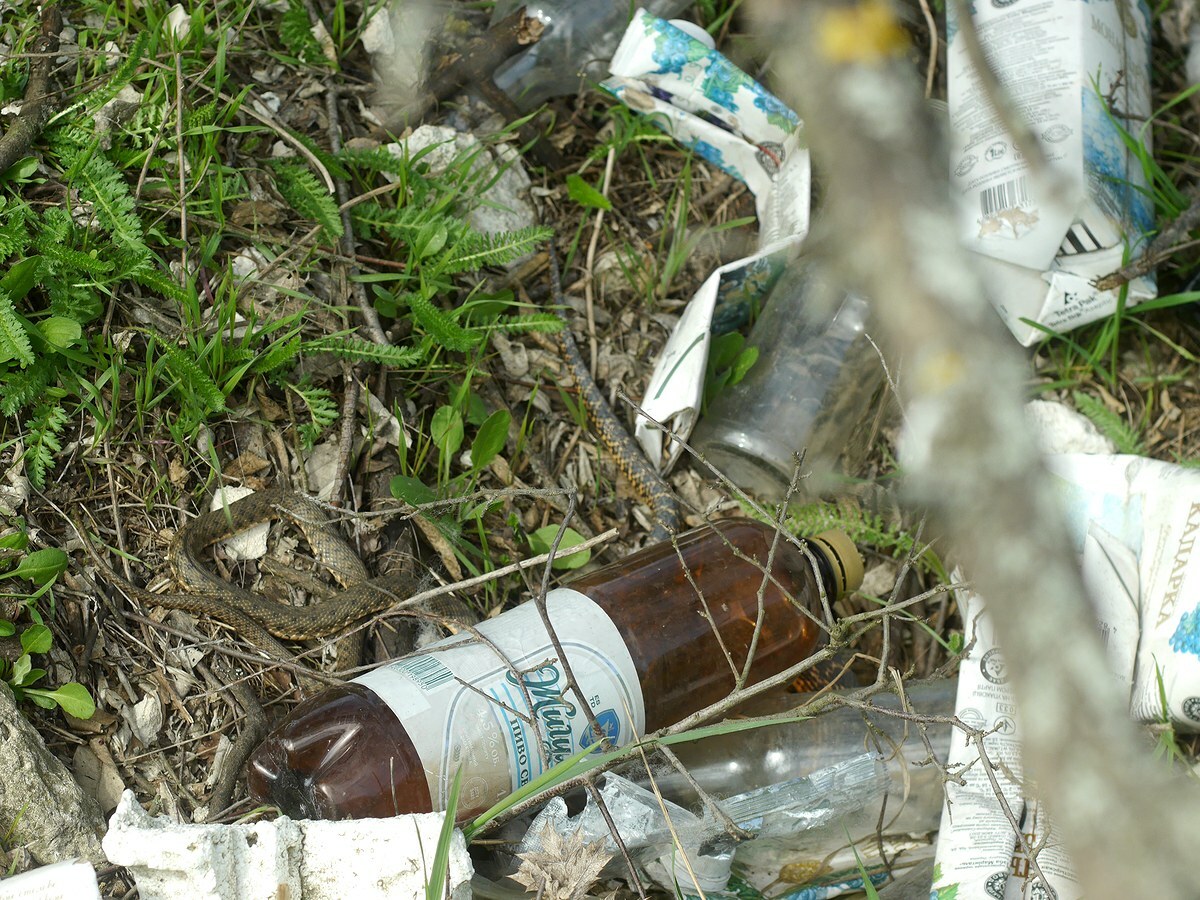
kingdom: Animalia
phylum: Chordata
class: Squamata
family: Colubridae
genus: Natrix
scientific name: Natrix tessellata
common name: Dice snake
